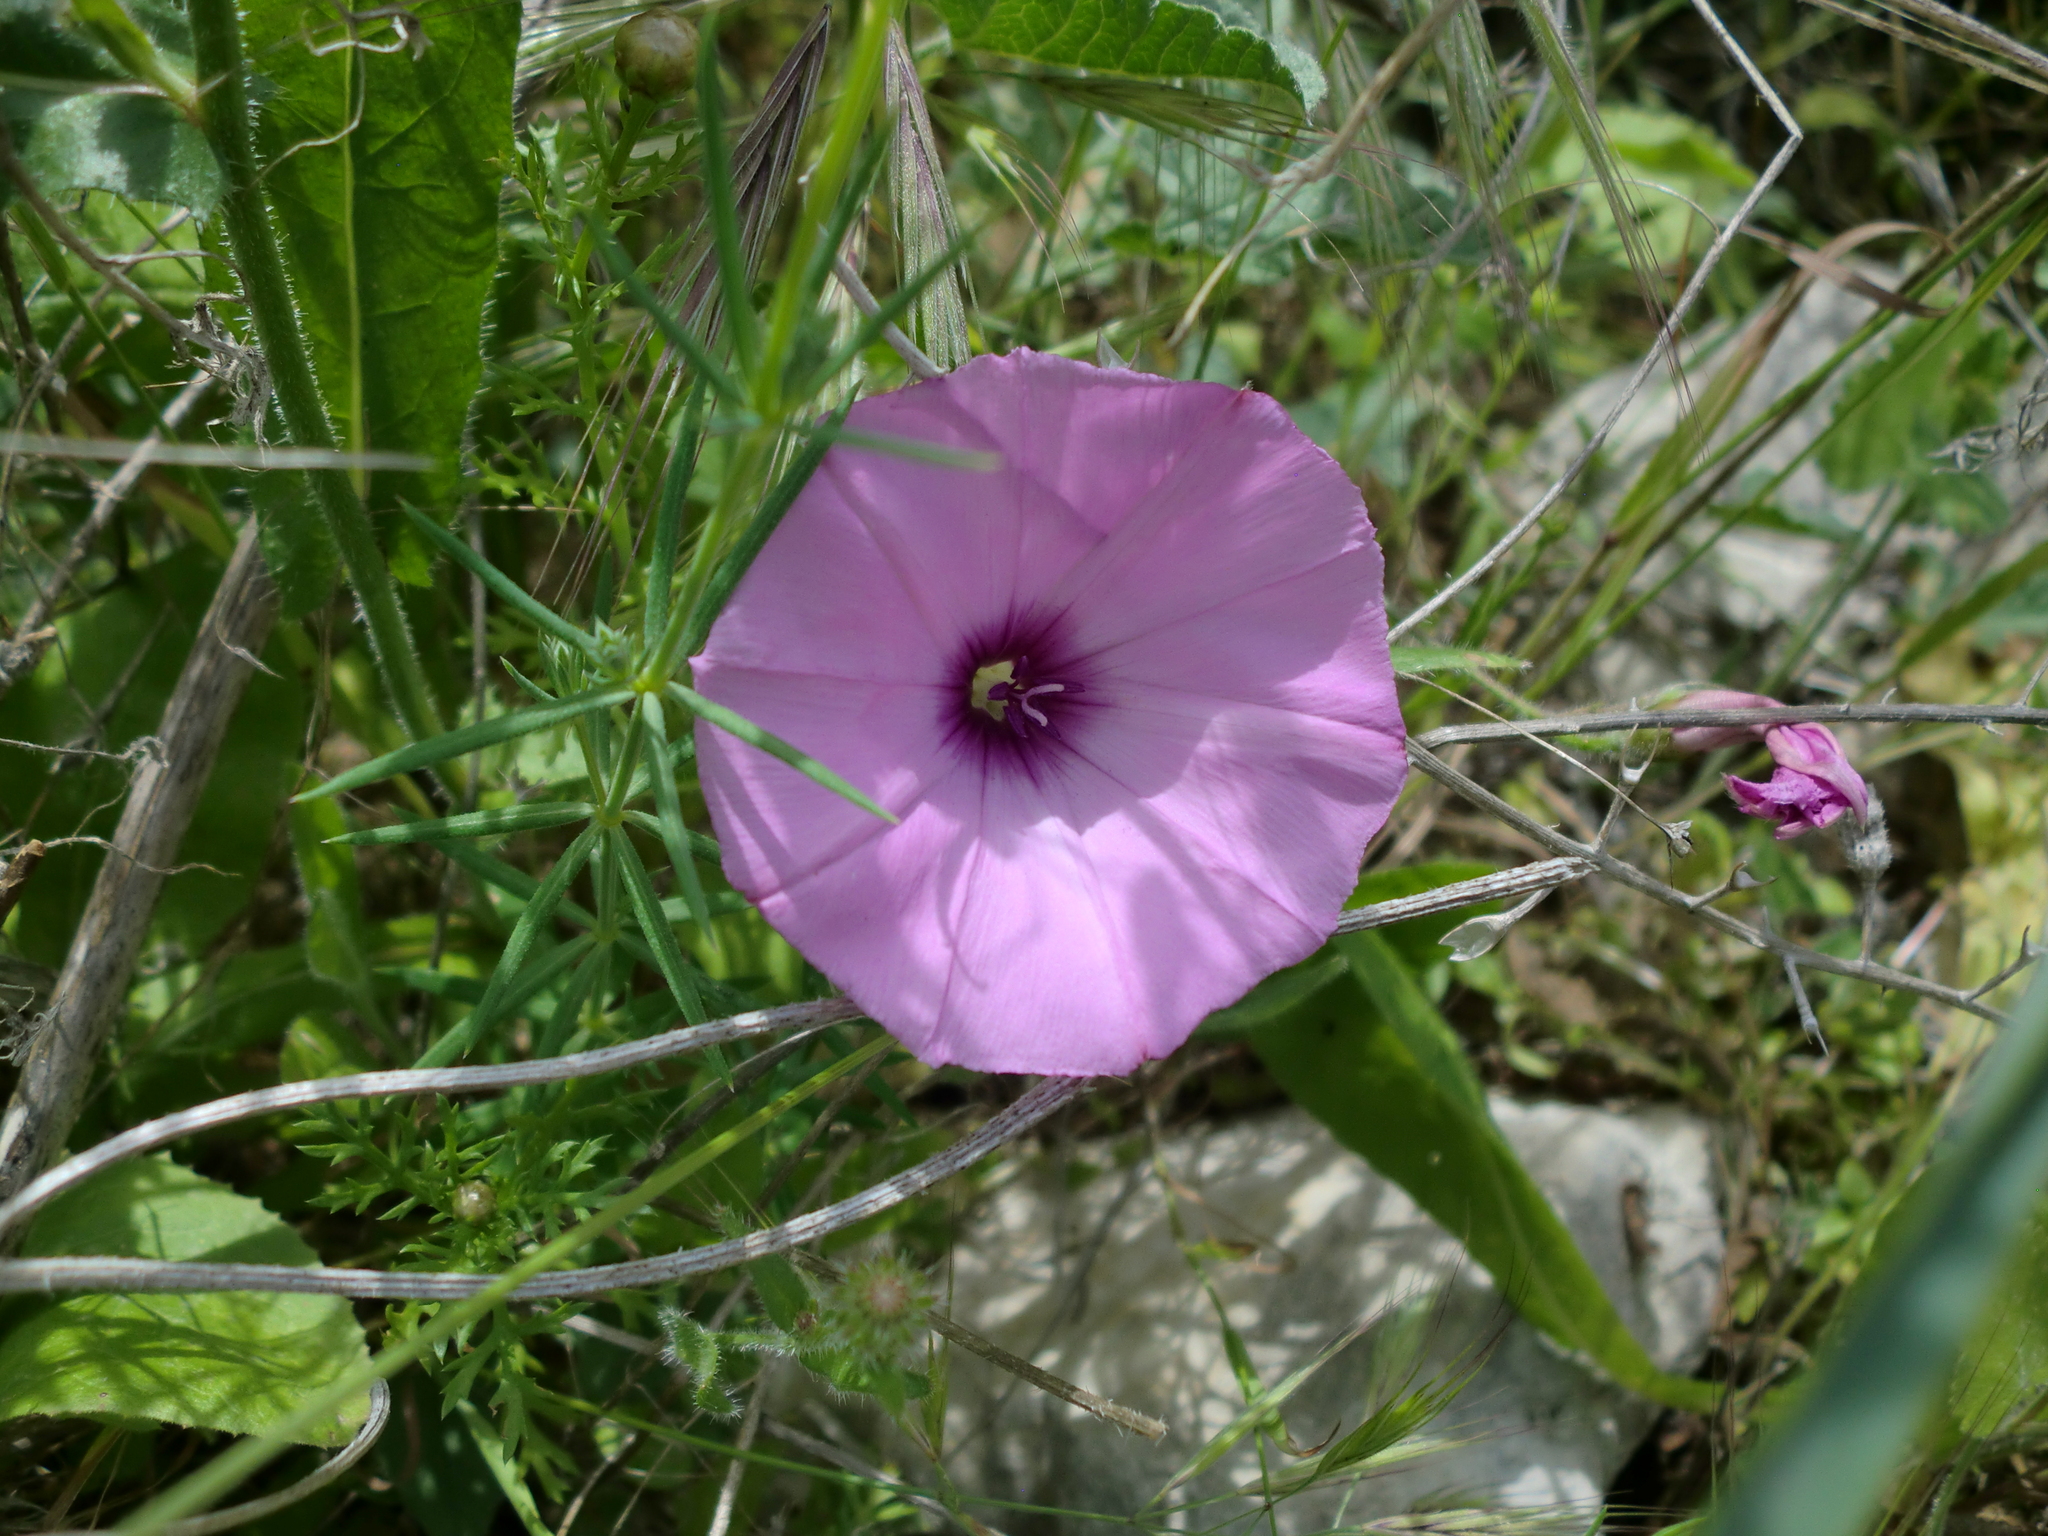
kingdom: Plantae
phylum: Tracheophyta
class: Magnoliopsida
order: Solanales
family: Convolvulaceae
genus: Convolvulus
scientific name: Convolvulus althaeoides
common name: Mallow bindweed
